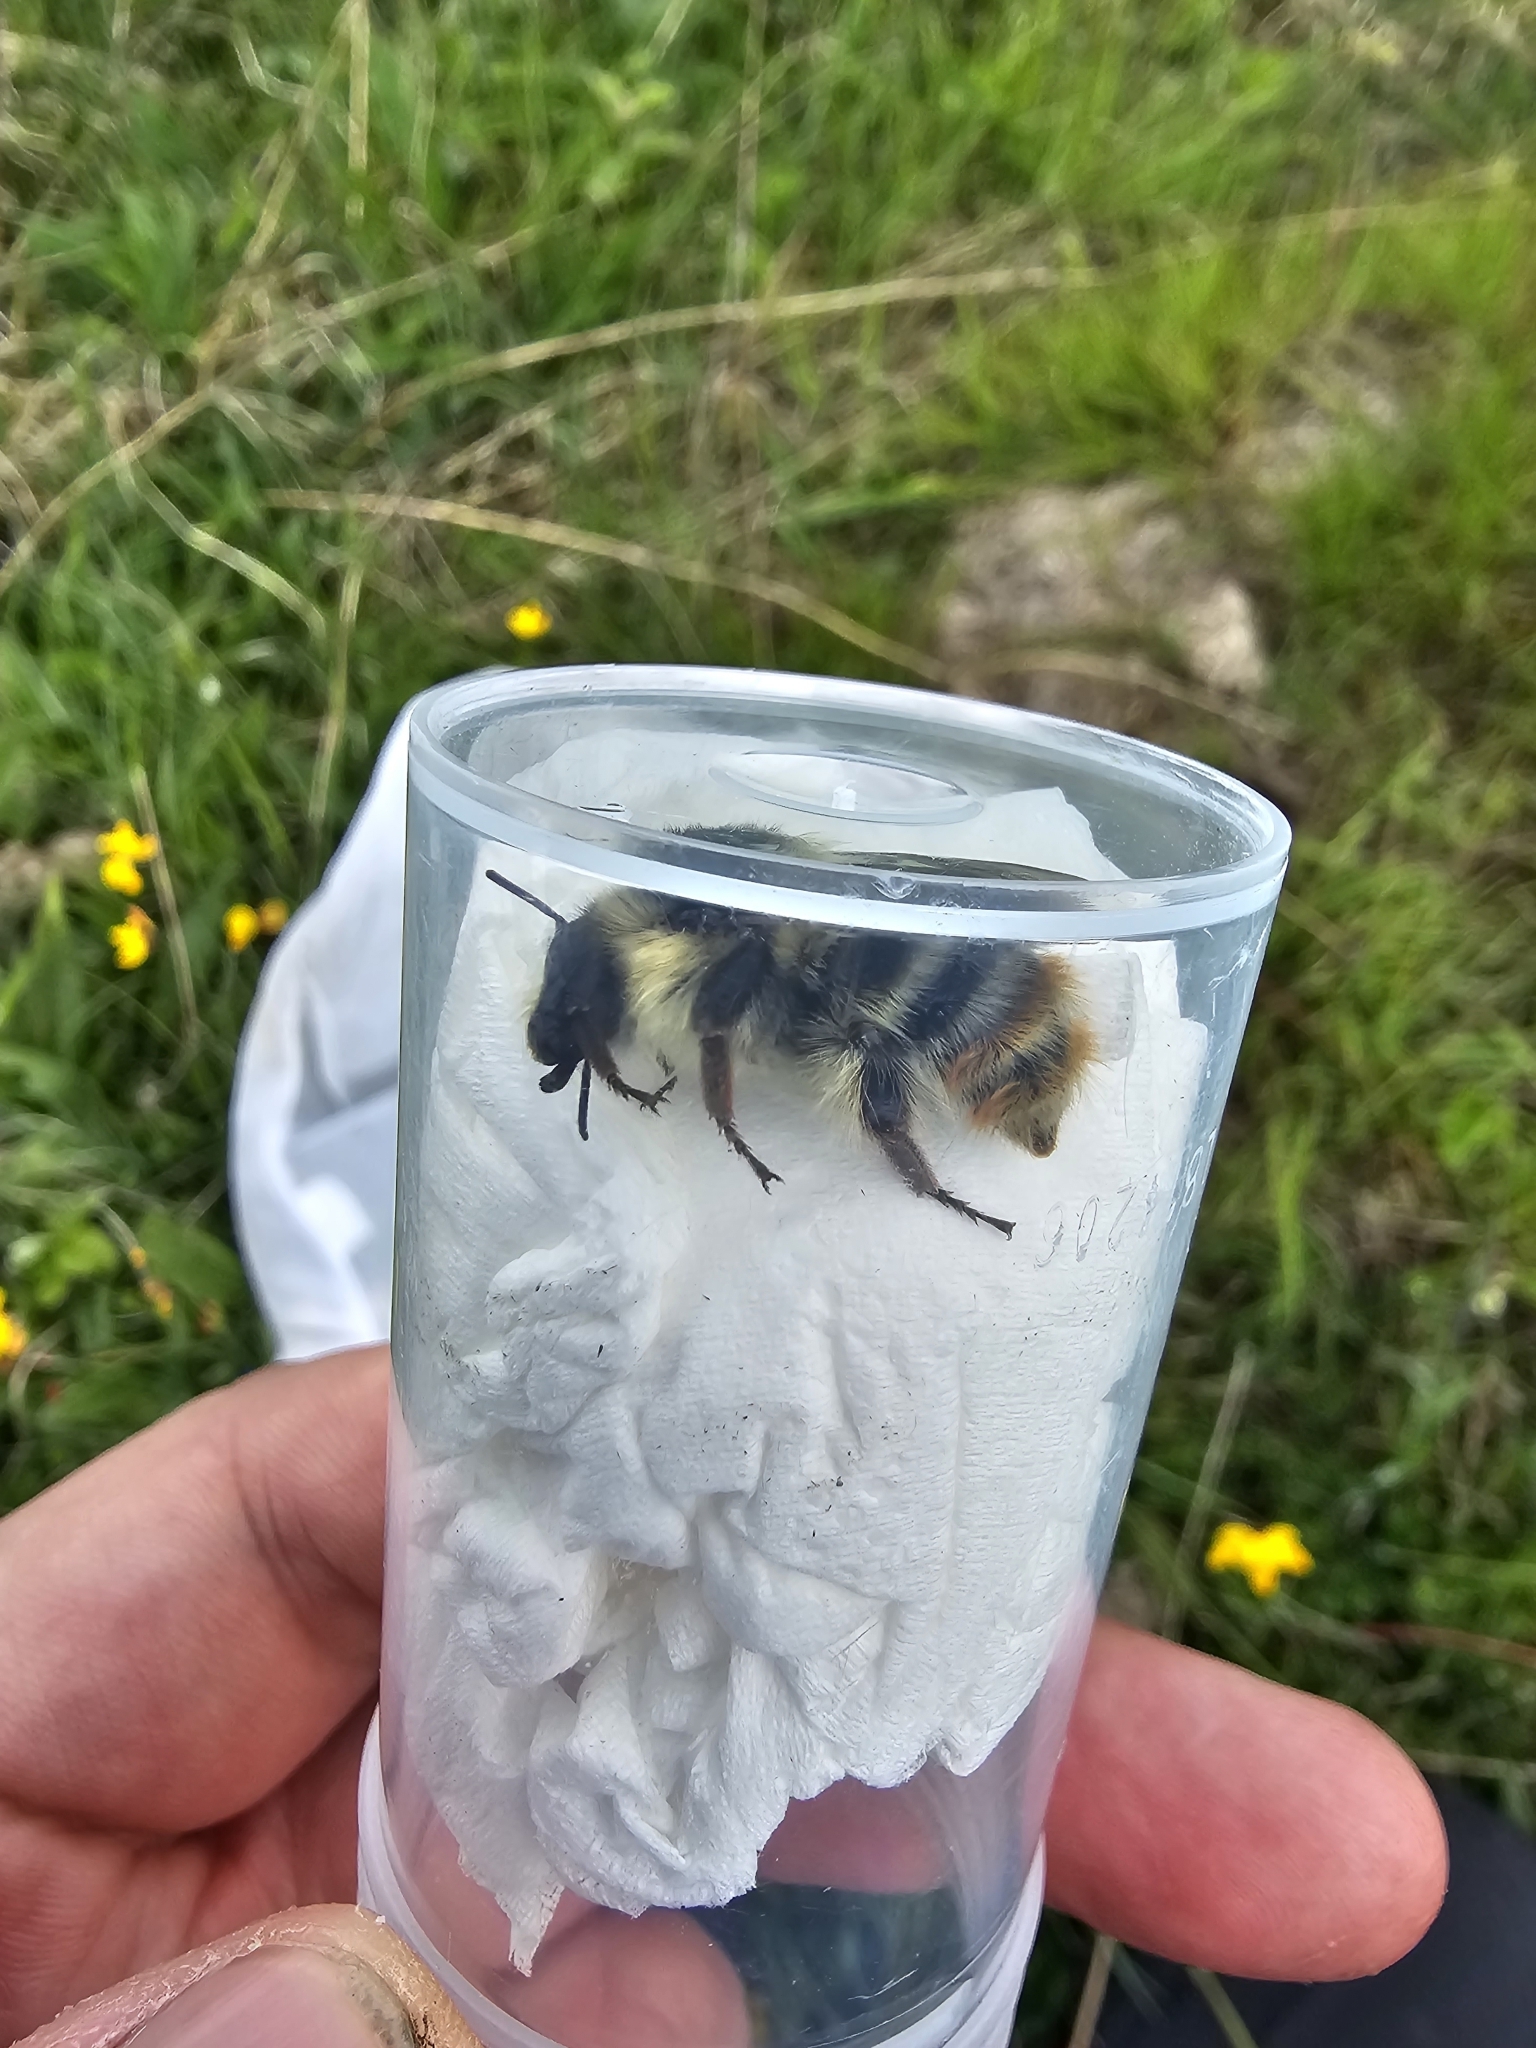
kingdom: Animalia
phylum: Arthropoda
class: Insecta
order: Hymenoptera
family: Apidae
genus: Bombus
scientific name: Bombus sylvarum
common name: Shrill carder bee
